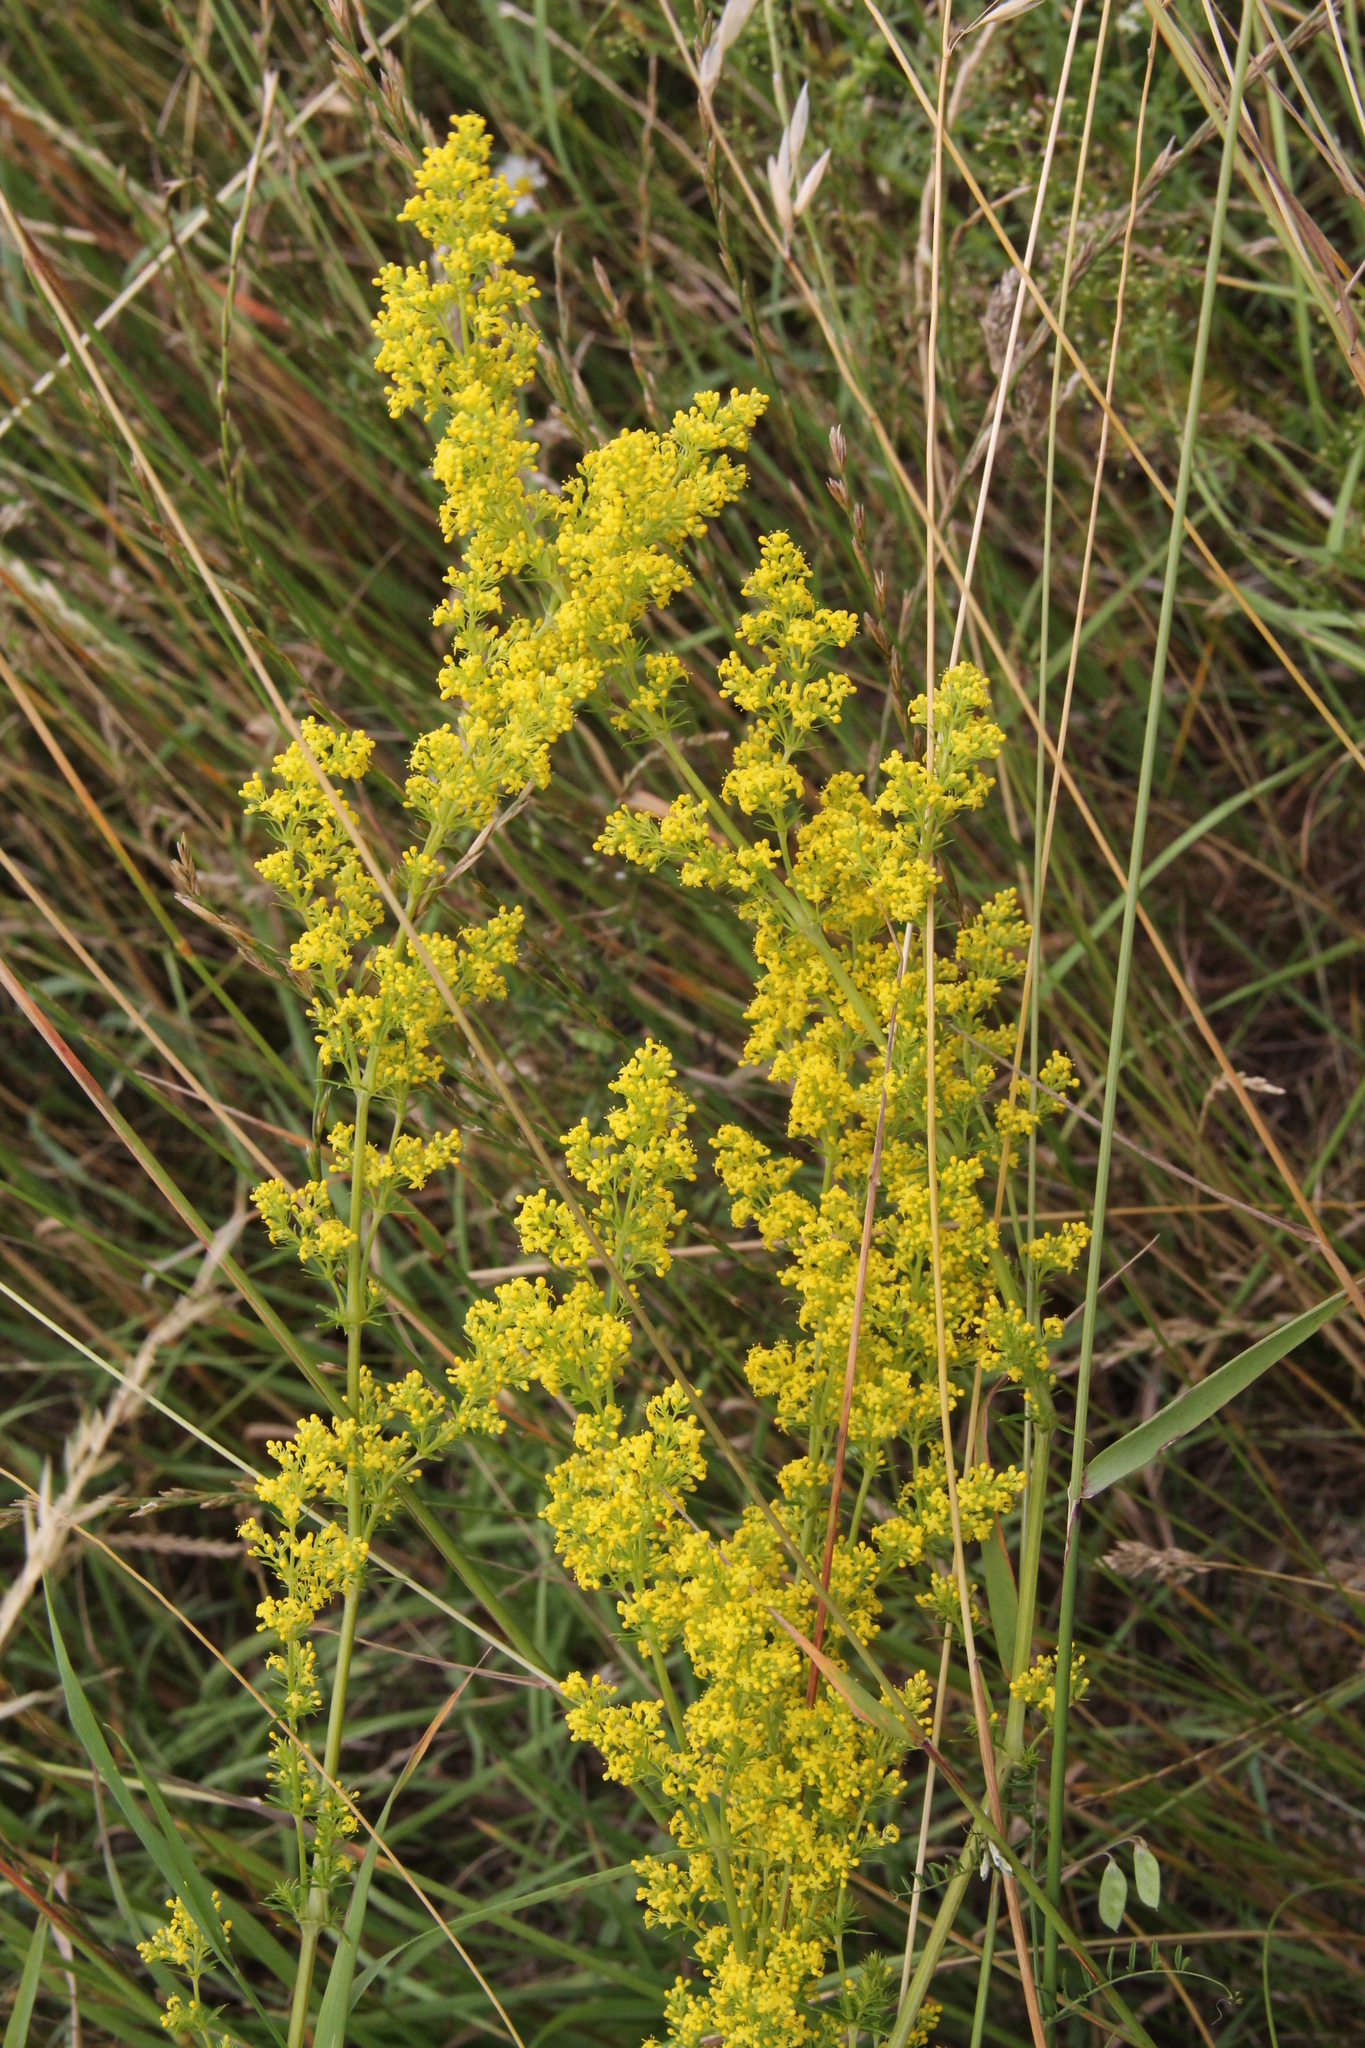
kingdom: Plantae
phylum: Tracheophyta
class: Magnoliopsida
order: Gentianales
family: Rubiaceae
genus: Galium
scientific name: Galium verum
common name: Lady's bedstraw
